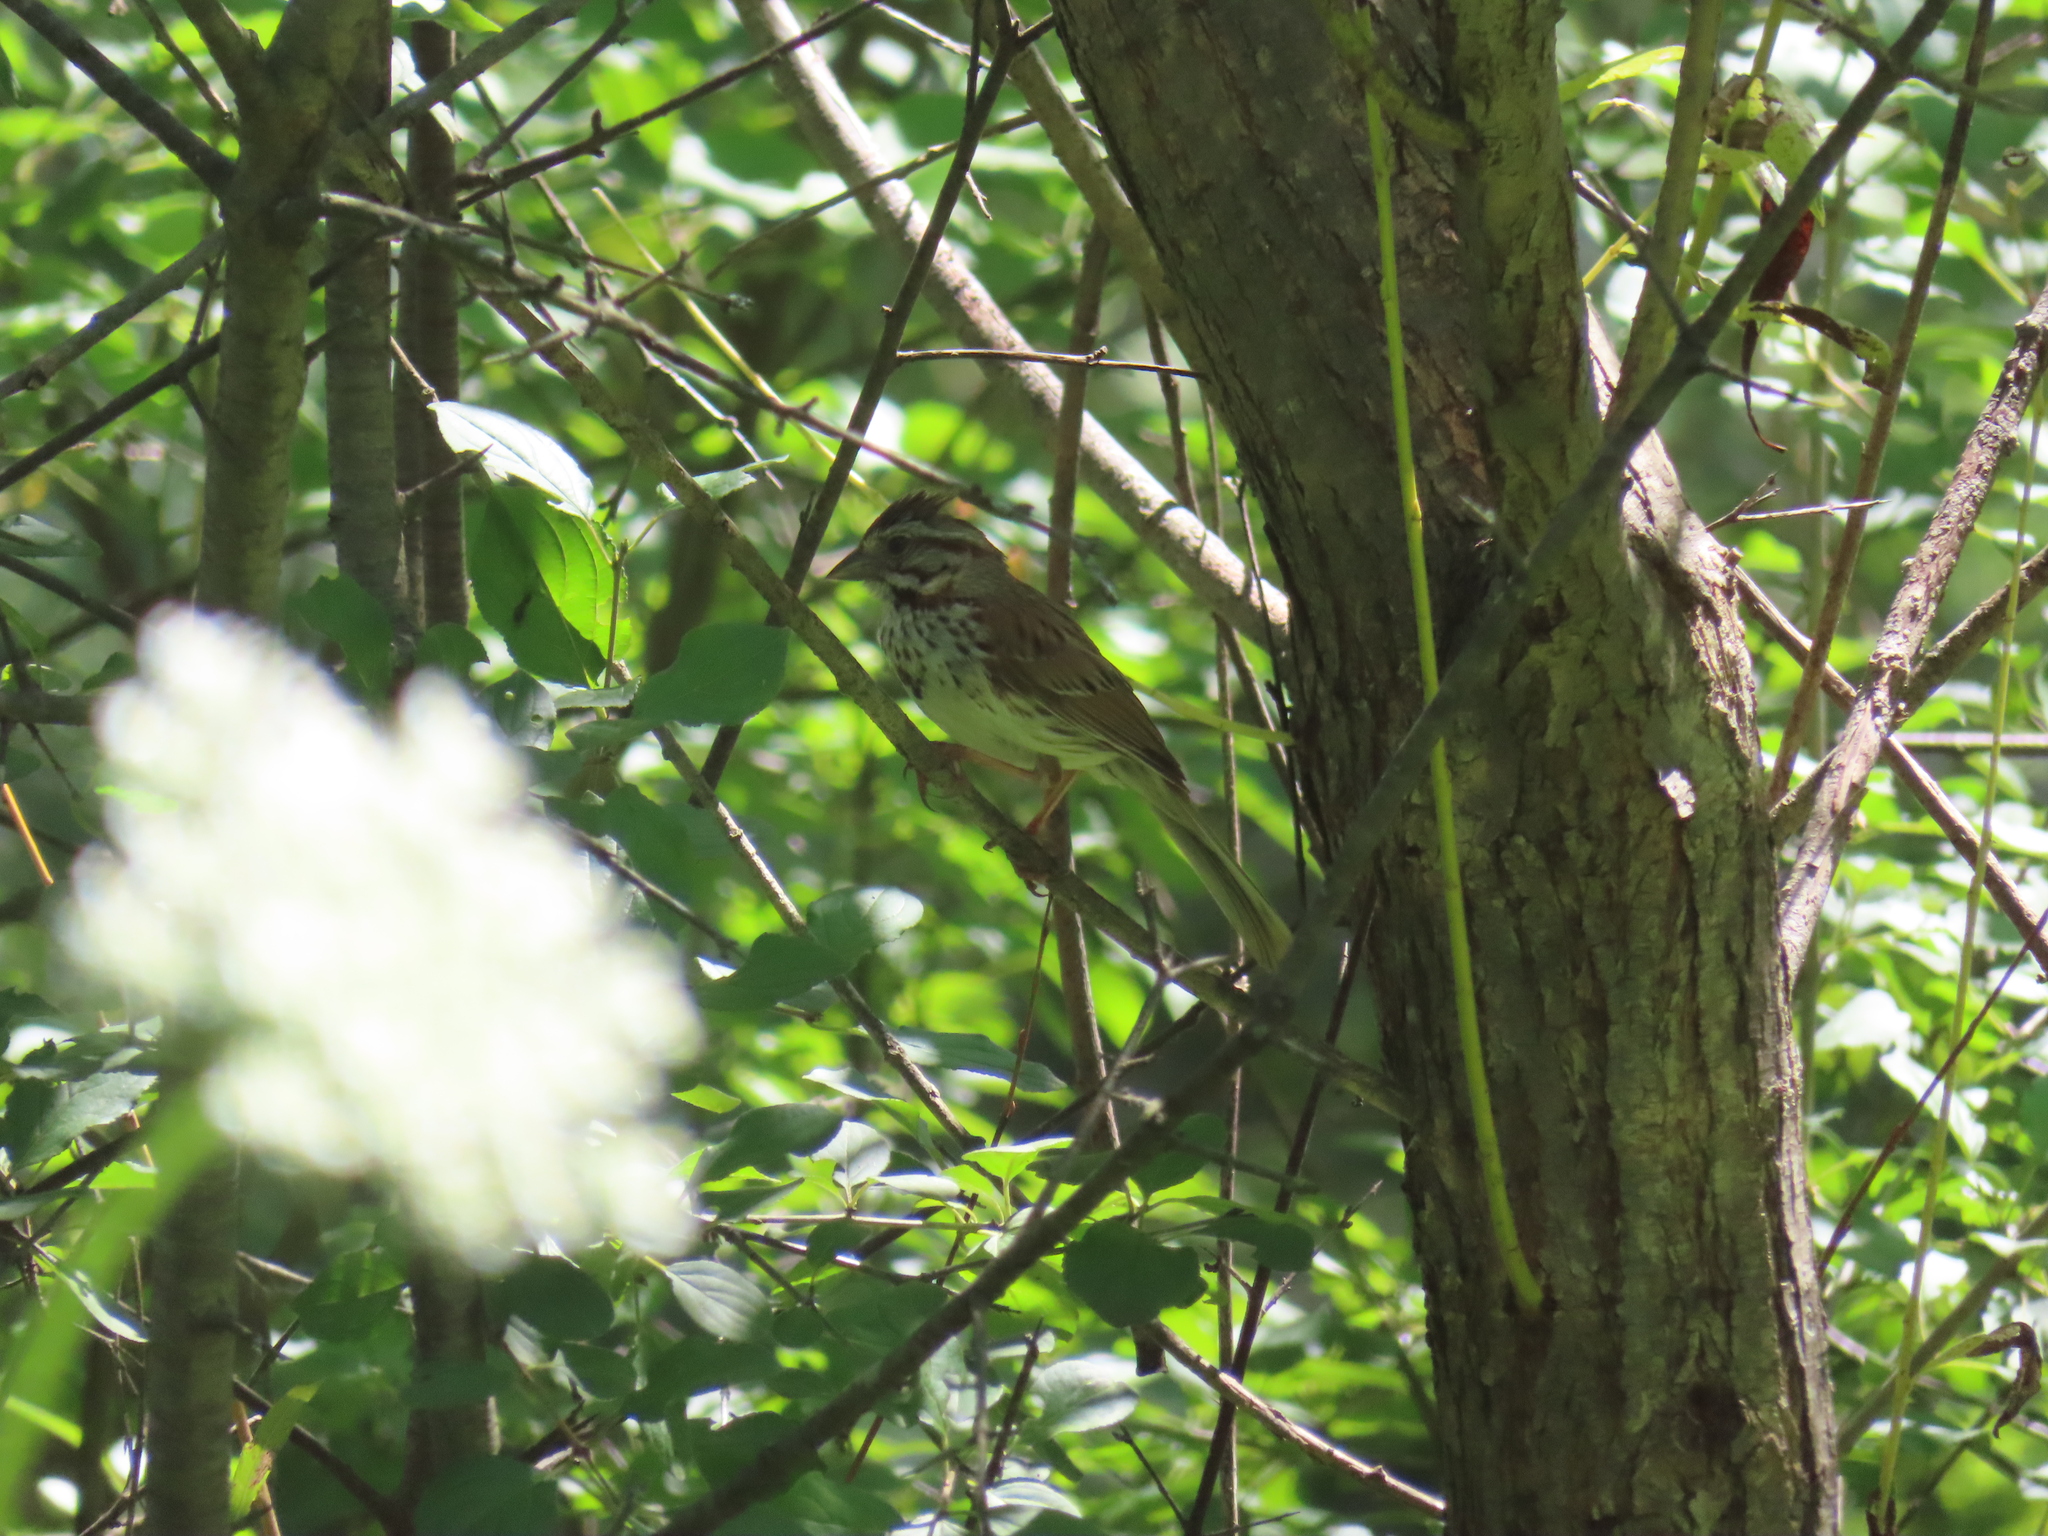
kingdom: Animalia
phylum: Chordata
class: Aves
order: Passeriformes
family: Passerellidae
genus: Melospiza
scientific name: Melospiza melodia
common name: Song sparrow
